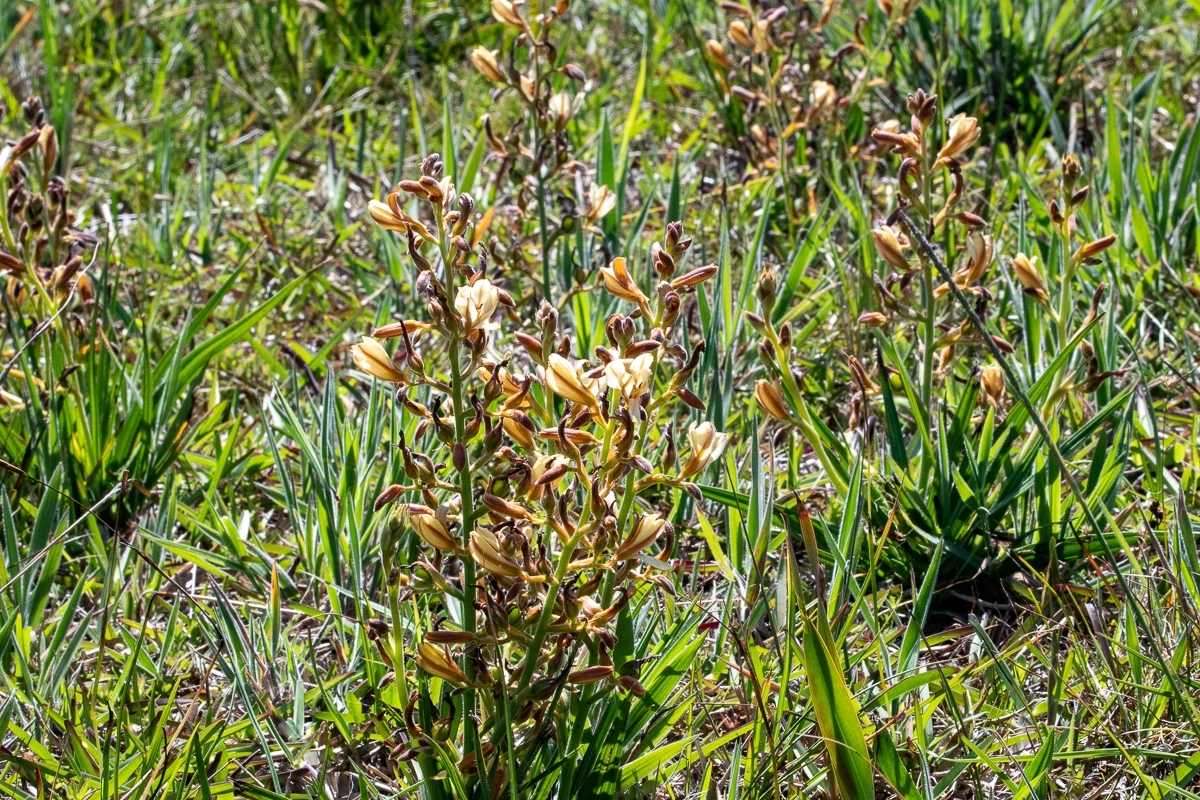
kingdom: Plantae
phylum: Tracheophyta
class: Liliopsida
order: Commelinales
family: Haemodoraceae
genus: Wachendorfia
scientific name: Wachendorfia paniculata
